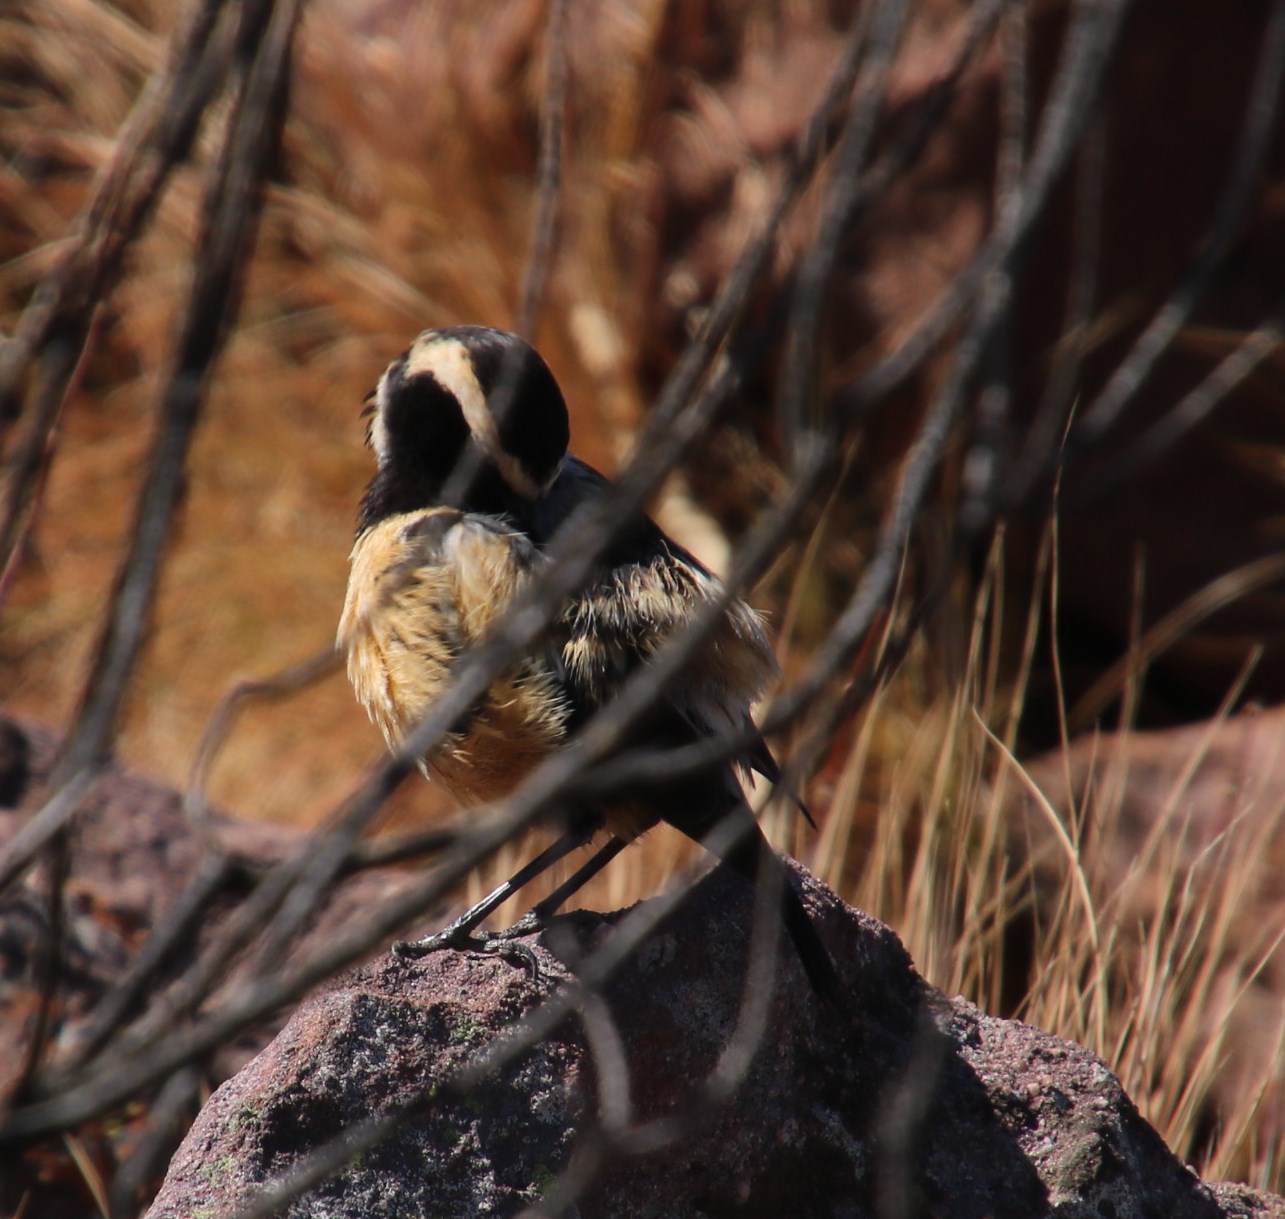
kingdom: Animalia
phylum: Chordata
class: Aves
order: Passeriformes
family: Muscicapidae
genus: Campicoloides
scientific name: Campicoloides bifasciatus
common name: Buff-streaked chat
